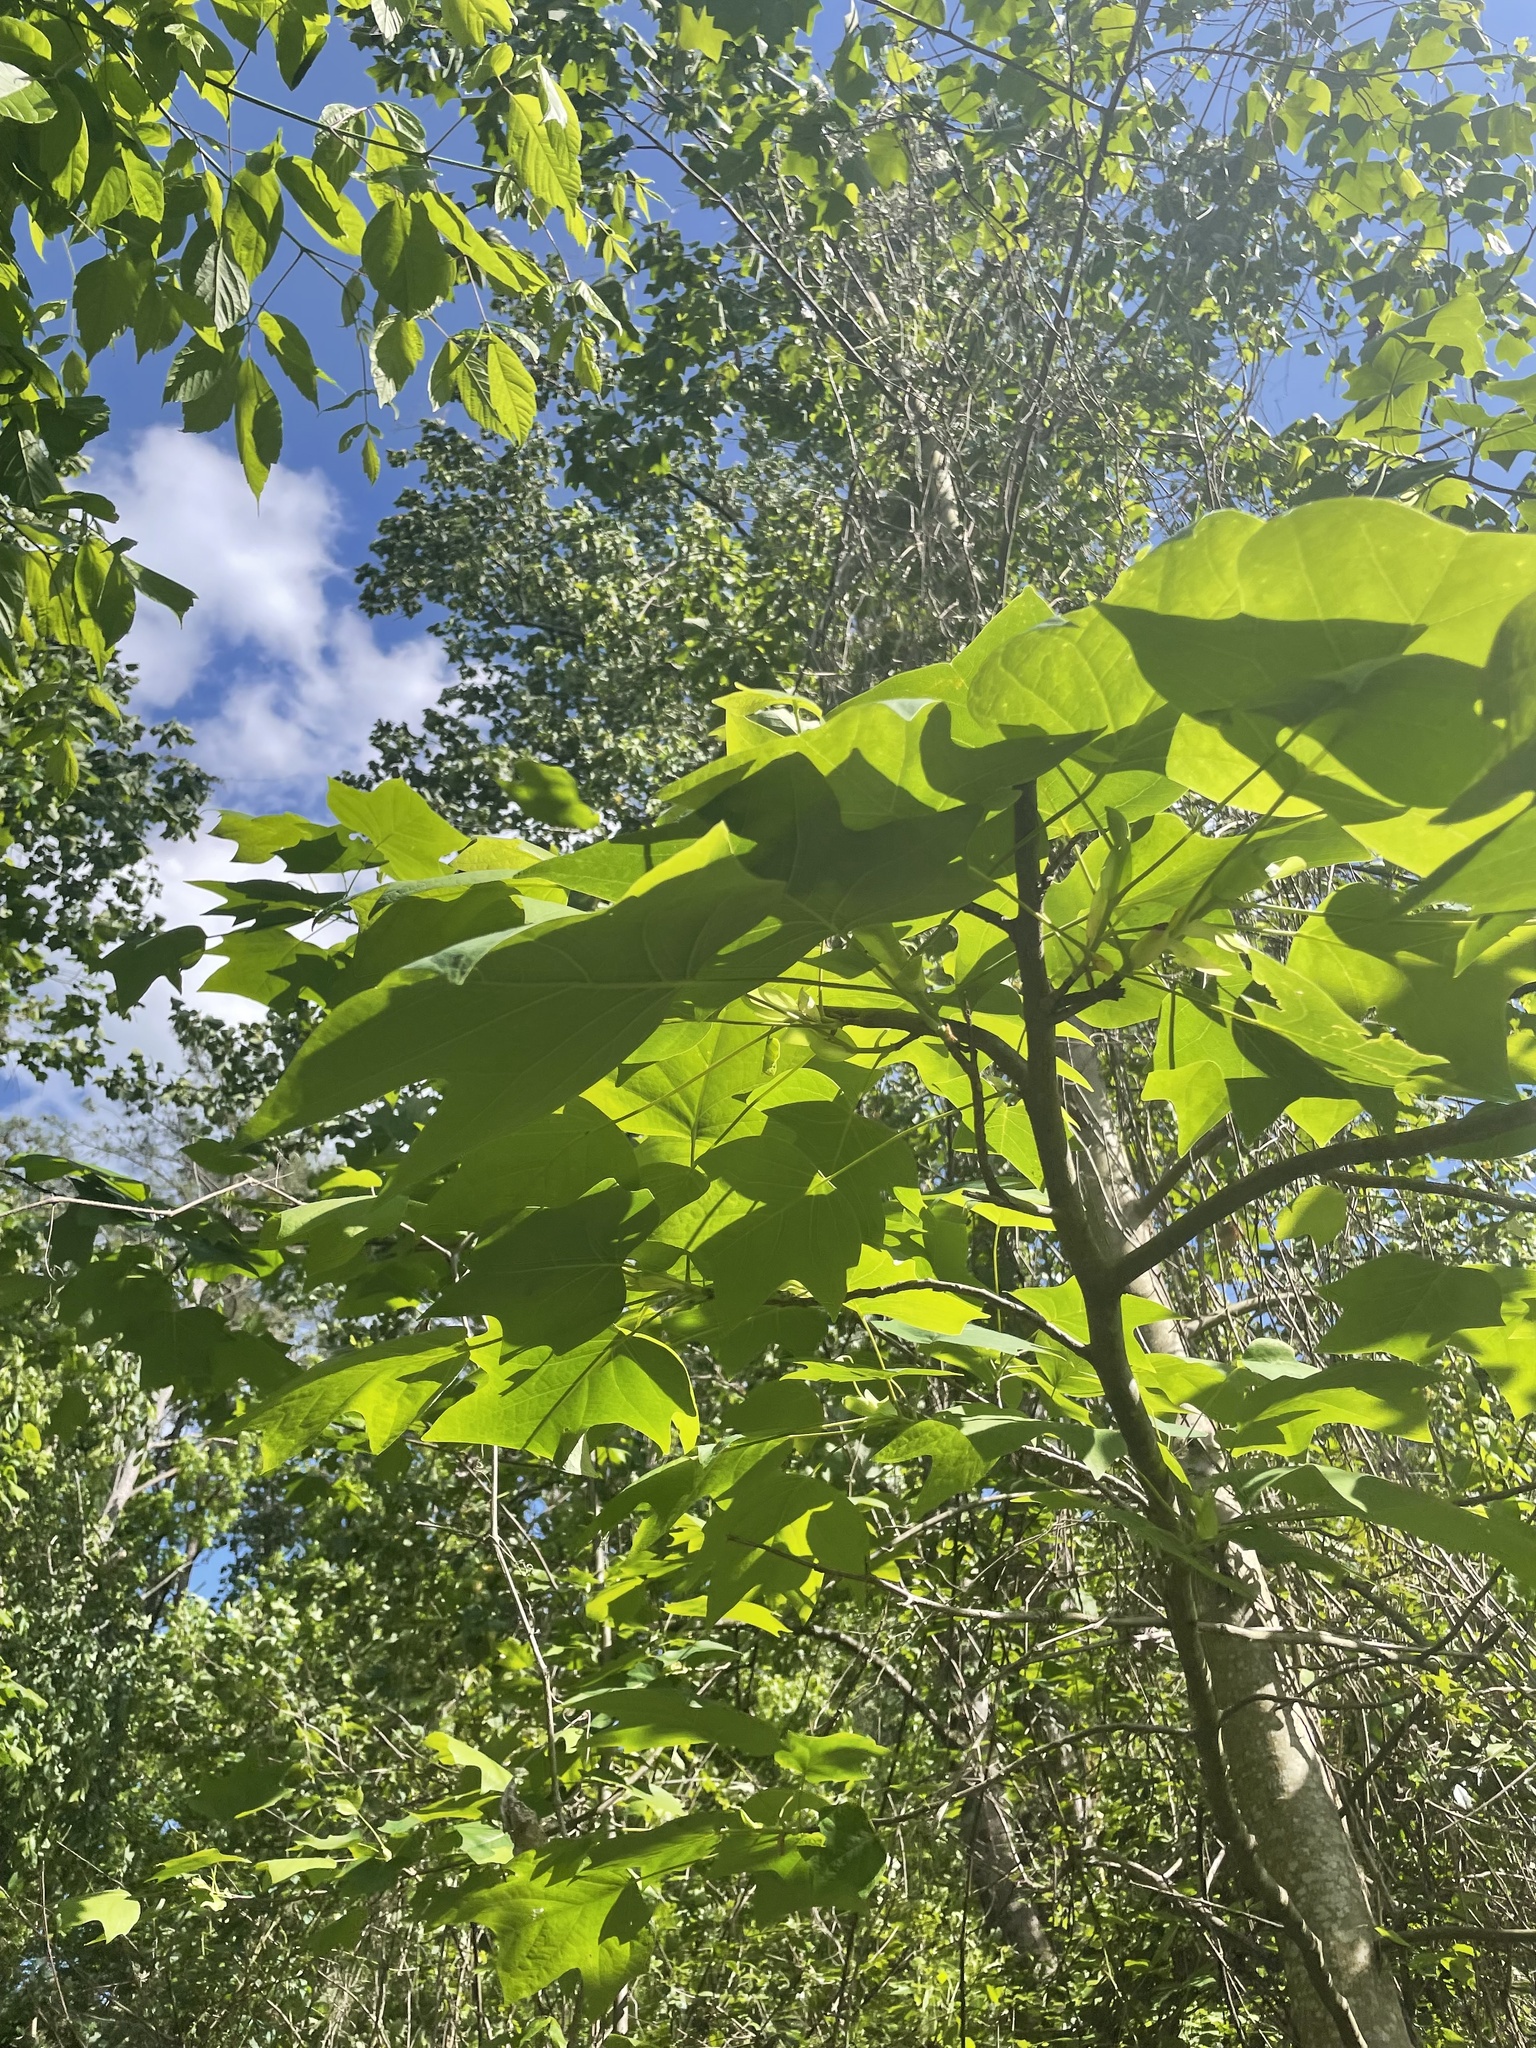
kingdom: Plantae
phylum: Tracheophyta
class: Magnoliopsida
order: Magnoliales
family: Magnoliaceae
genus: Liriodendron
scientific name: Liriodendron tulipifera
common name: Tulip tree
